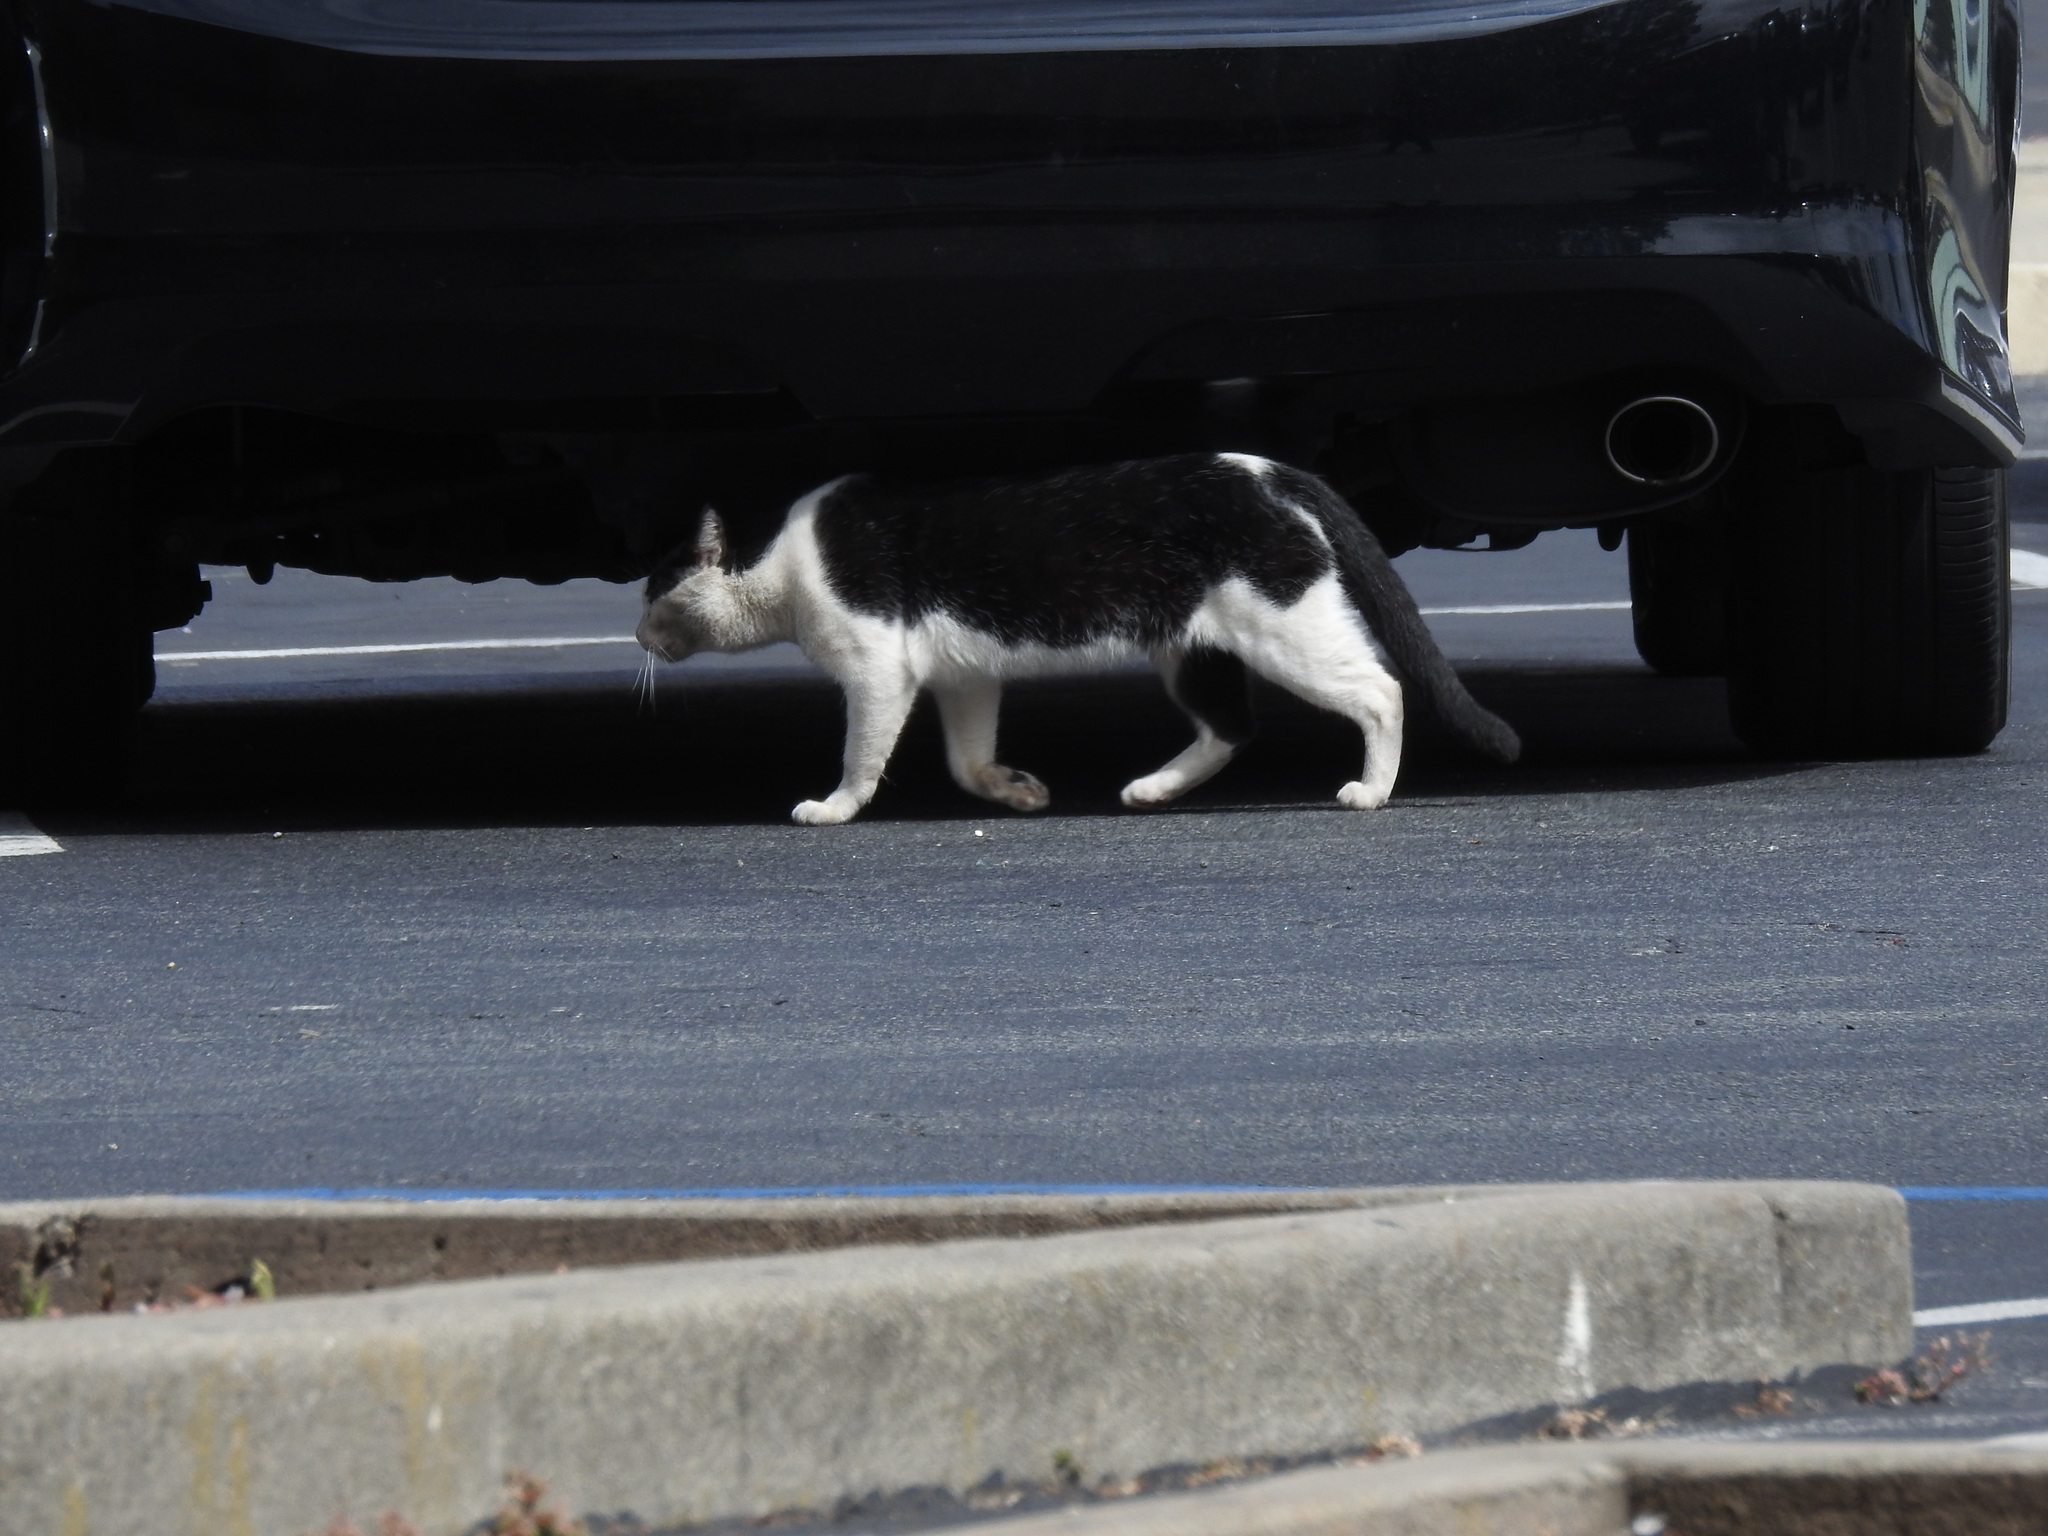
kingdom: Animalia
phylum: Chordata
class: Mammalia
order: Carnivora
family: Felidae
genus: Felis
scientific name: Felis catus
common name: Domestic cat
